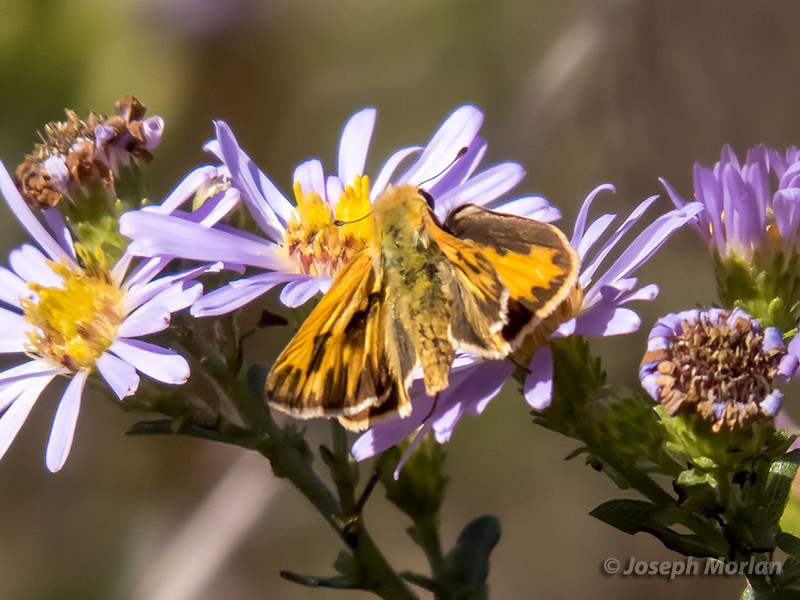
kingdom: Animalia
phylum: Arthropoda
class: Insecta
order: Lepidoptera
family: Hesperiidae
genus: Hylephila
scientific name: Hylephila phyleus
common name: Fiery skipper
